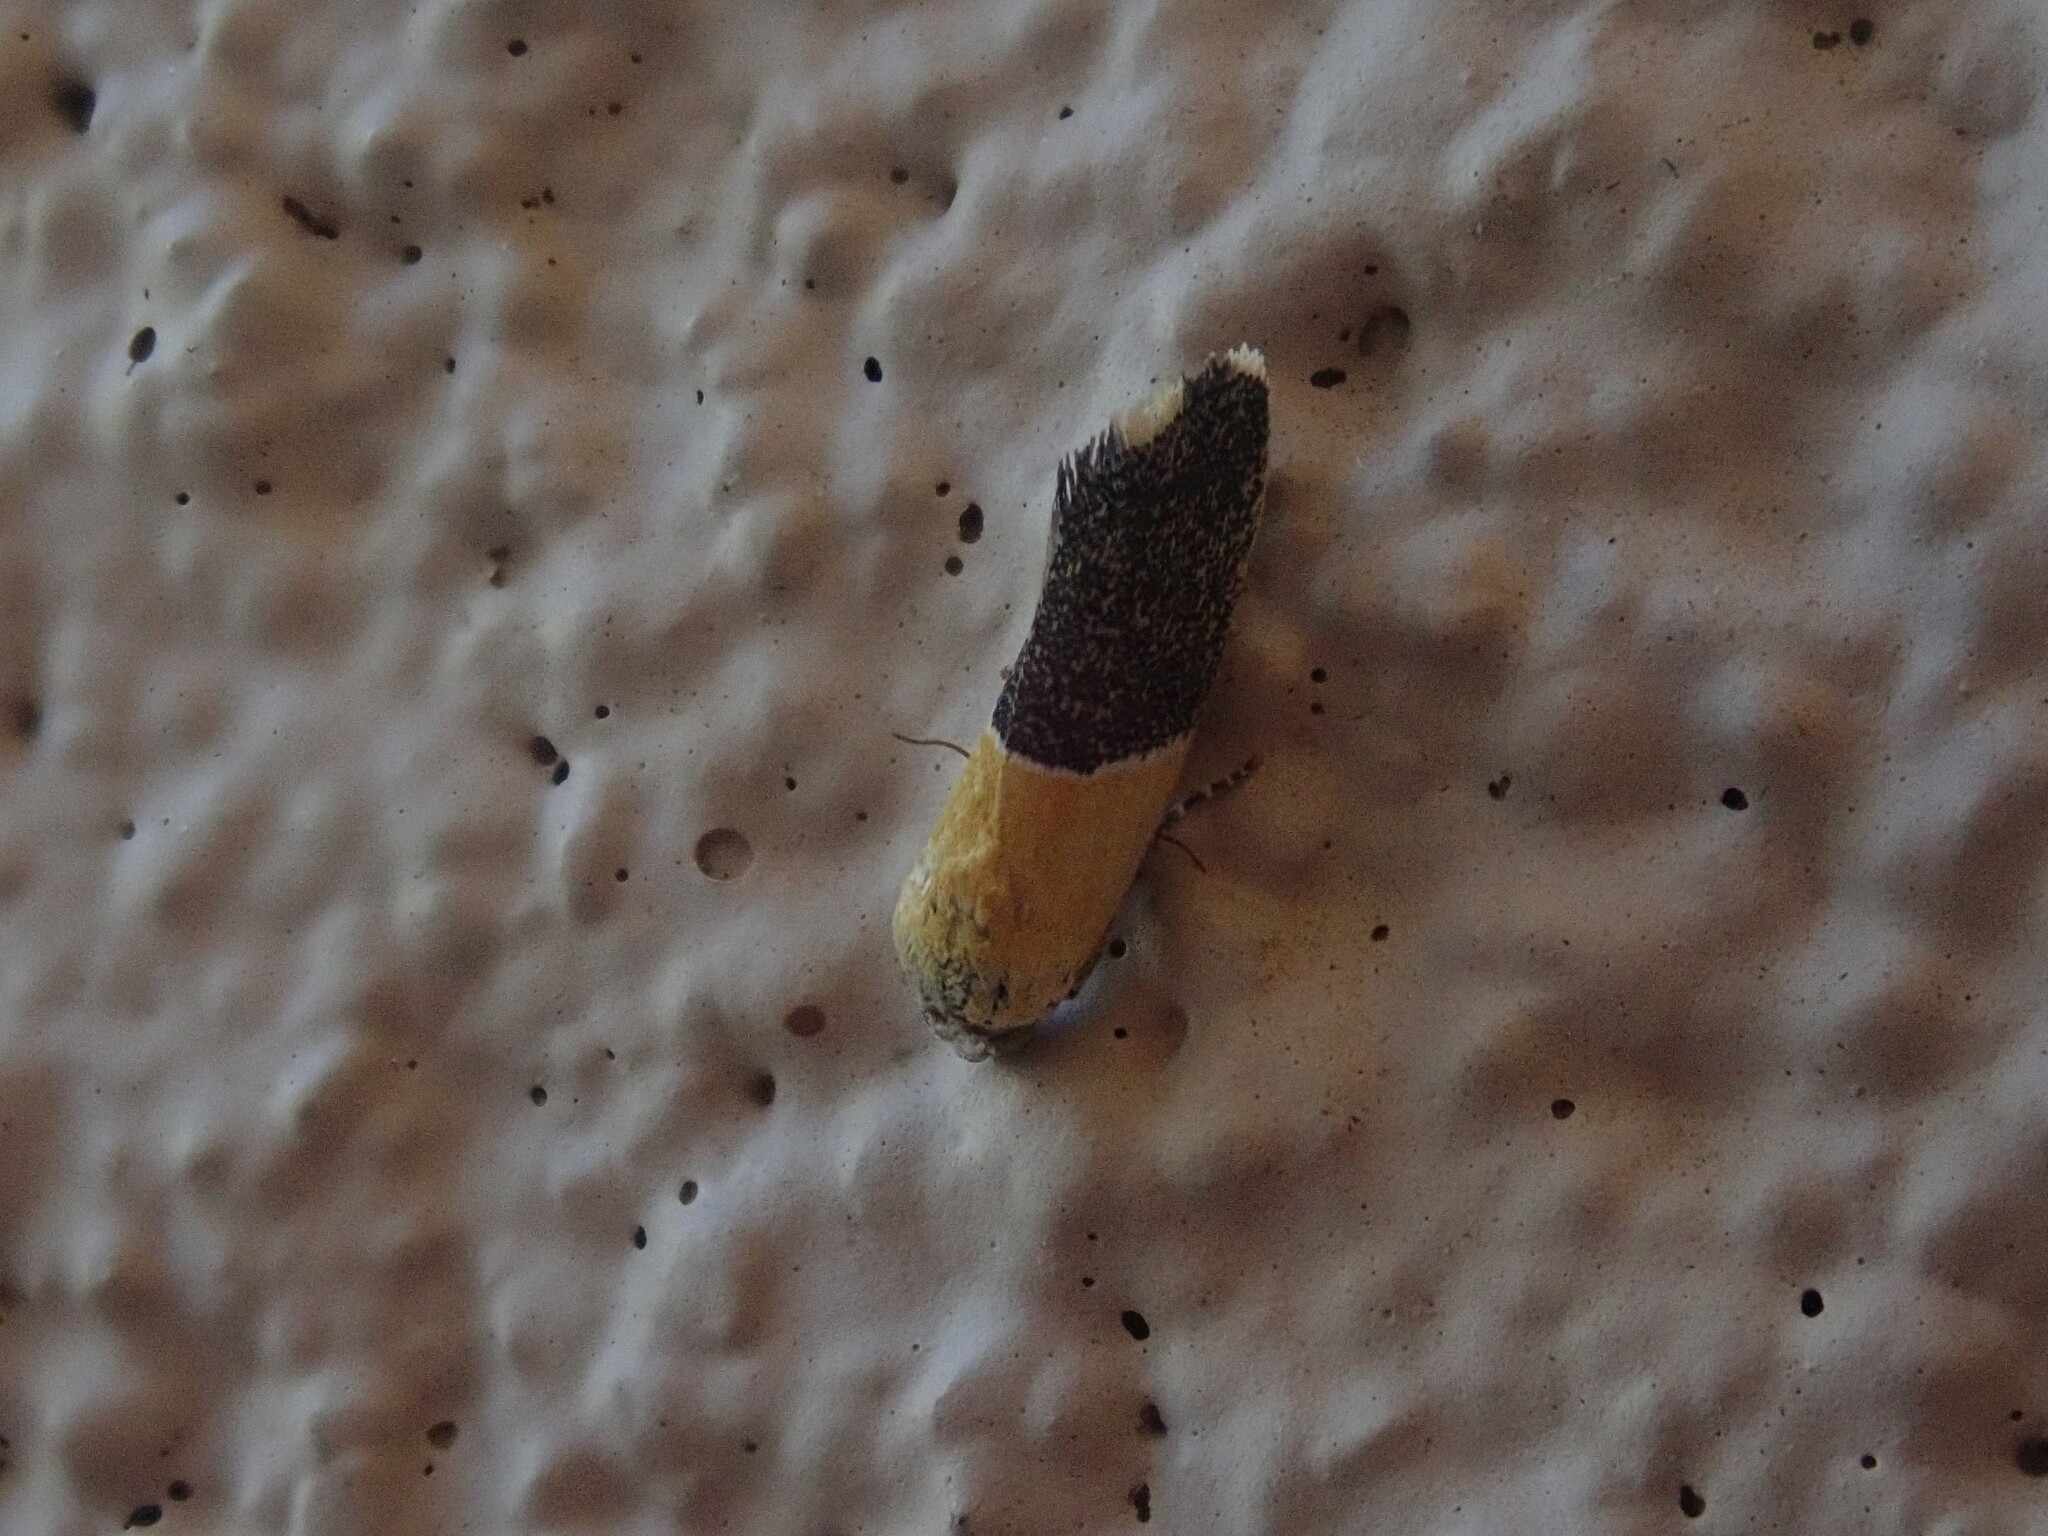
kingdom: Animalia
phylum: Arthropoda
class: Insecta
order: Lepidoptera
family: Noctuidae
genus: Acontia
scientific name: Acontia clausula
